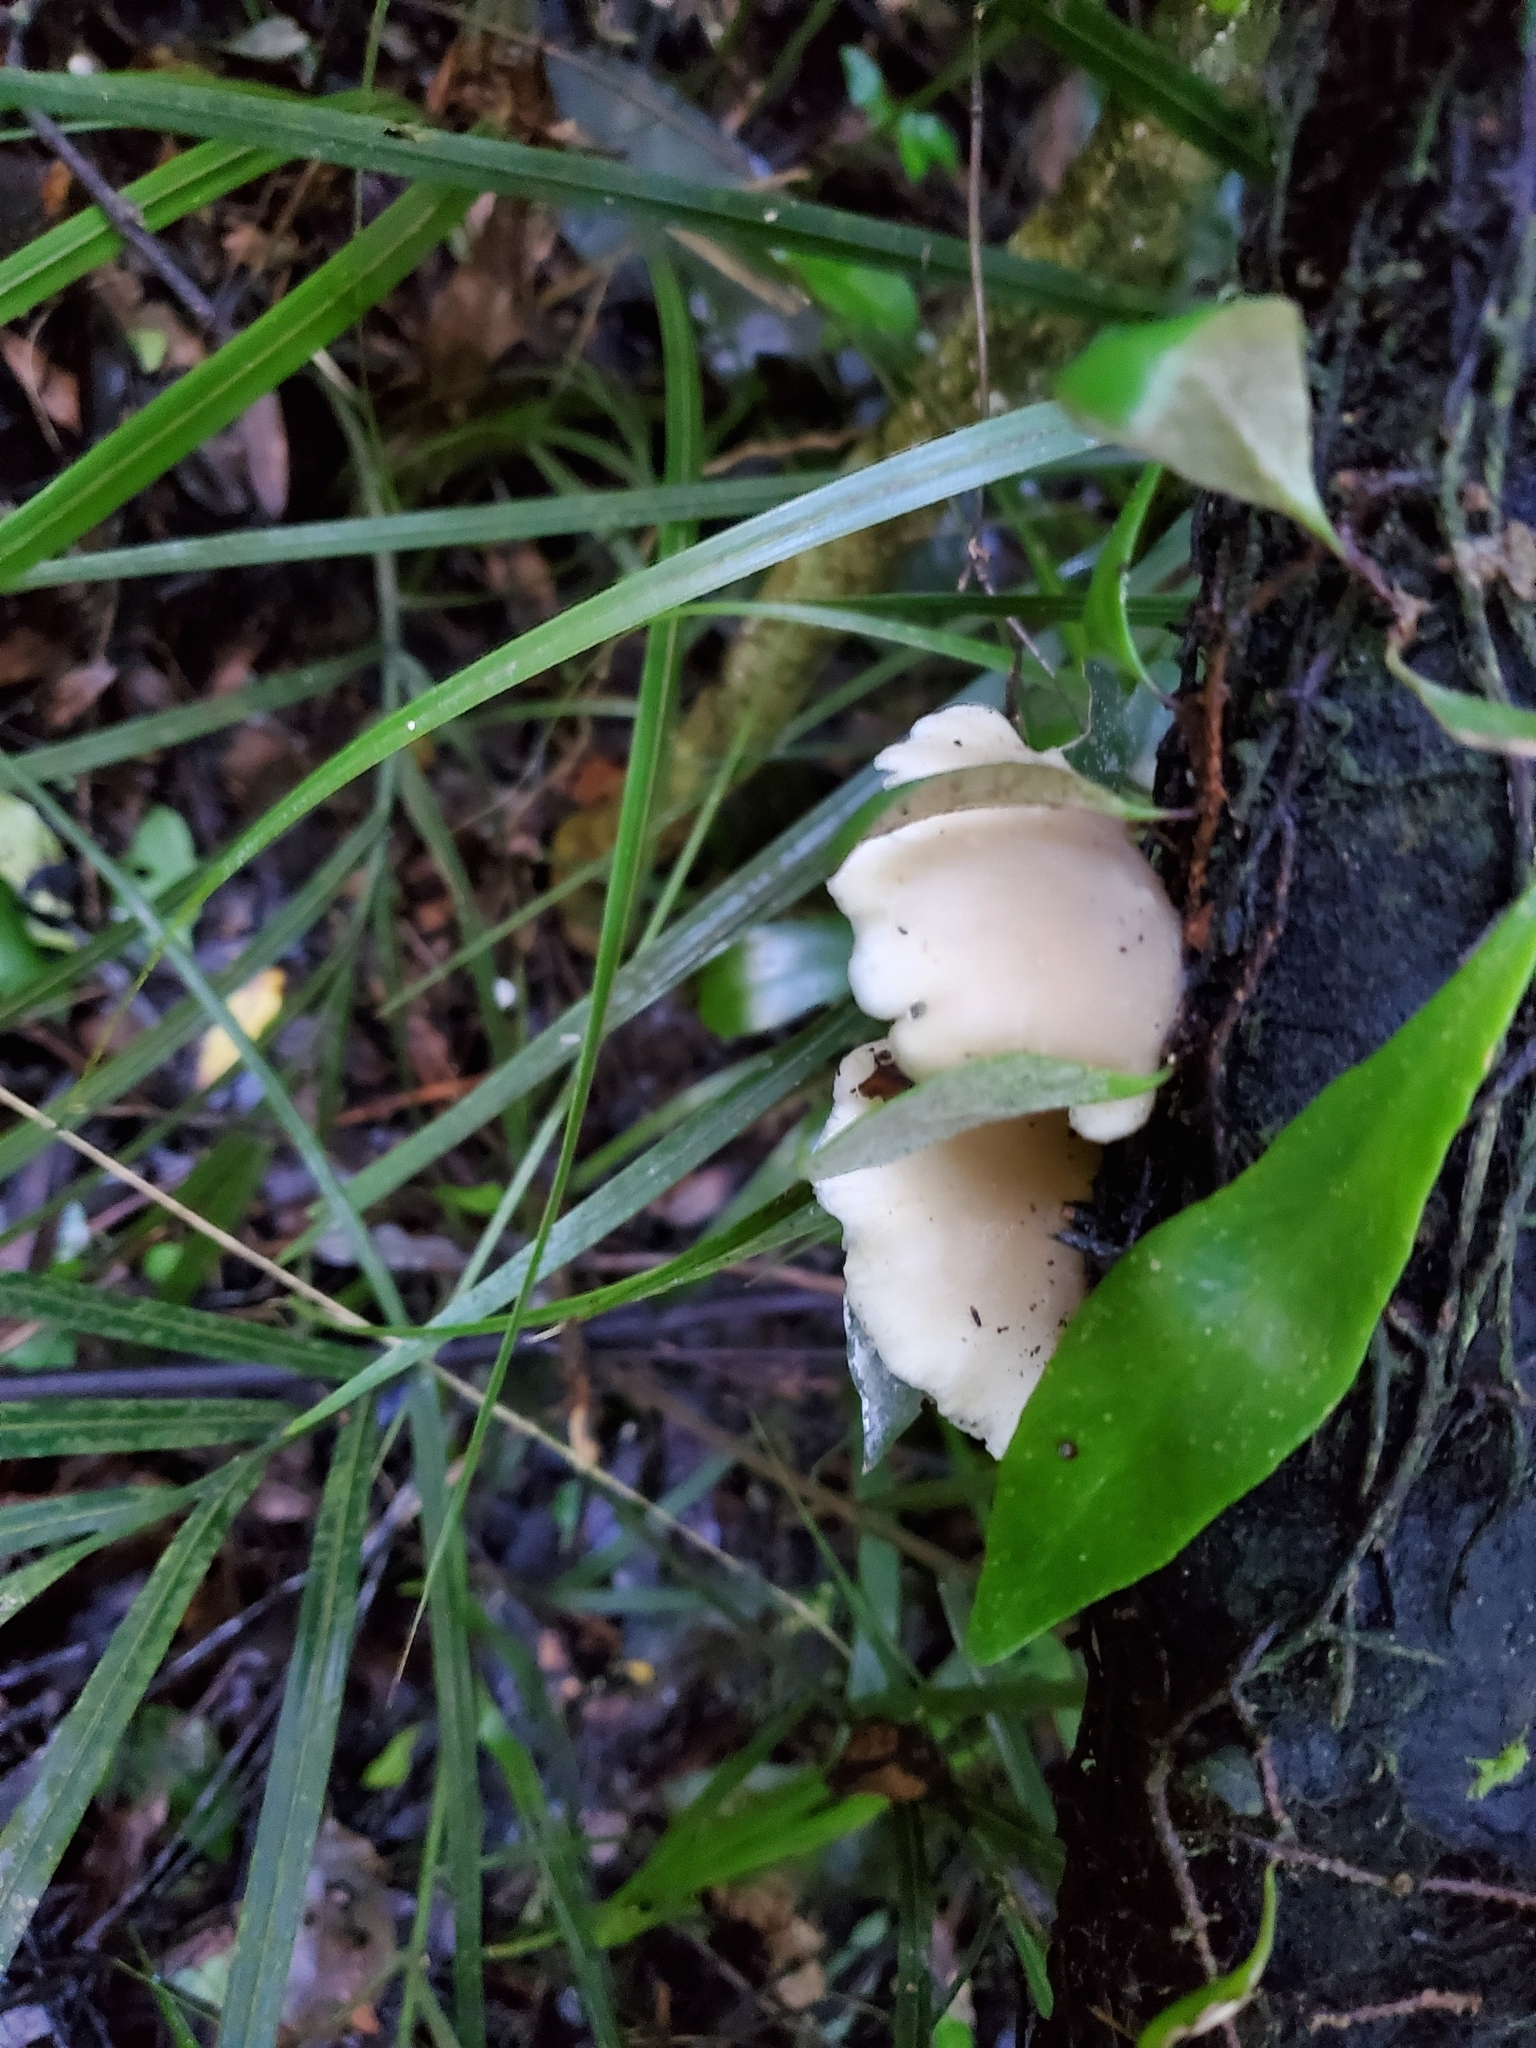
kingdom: Fungi
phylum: Basidiomycota
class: Agaricomycetes
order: Agaricales
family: Tricholomataceae
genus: Conchomyces
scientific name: Conchomyces bursiformis
